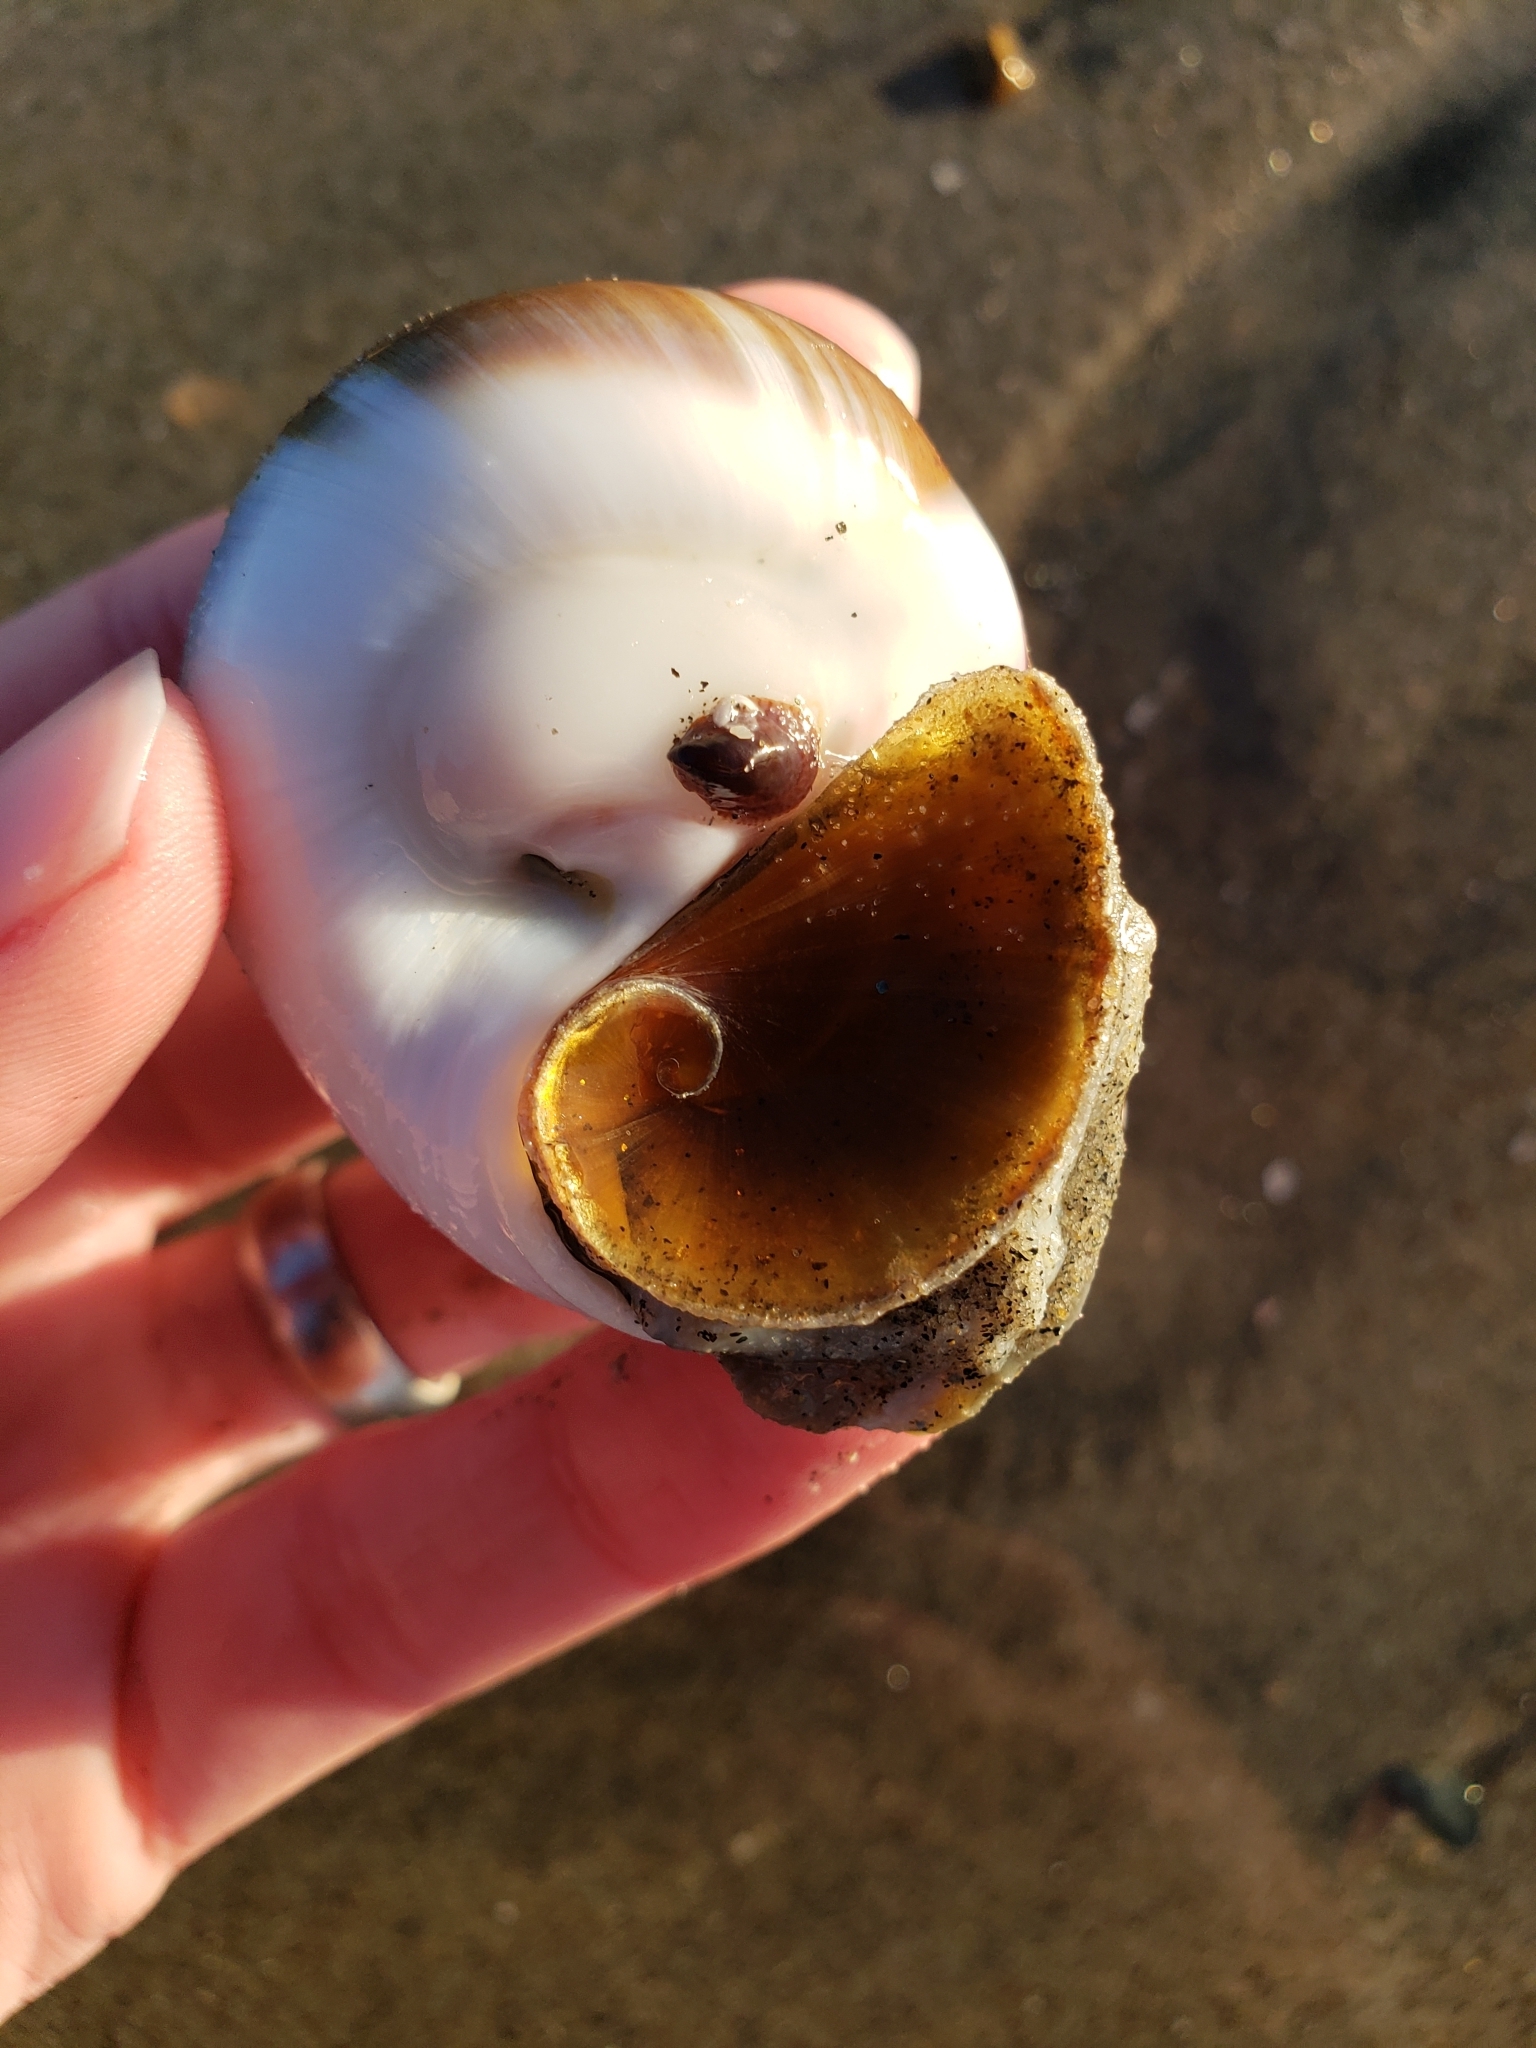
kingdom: Animalia
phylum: Mollusca
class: Gastropoda
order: Littorinimorpha
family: Naticidae
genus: Glossaulax
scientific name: Glossaulax reclusiana
